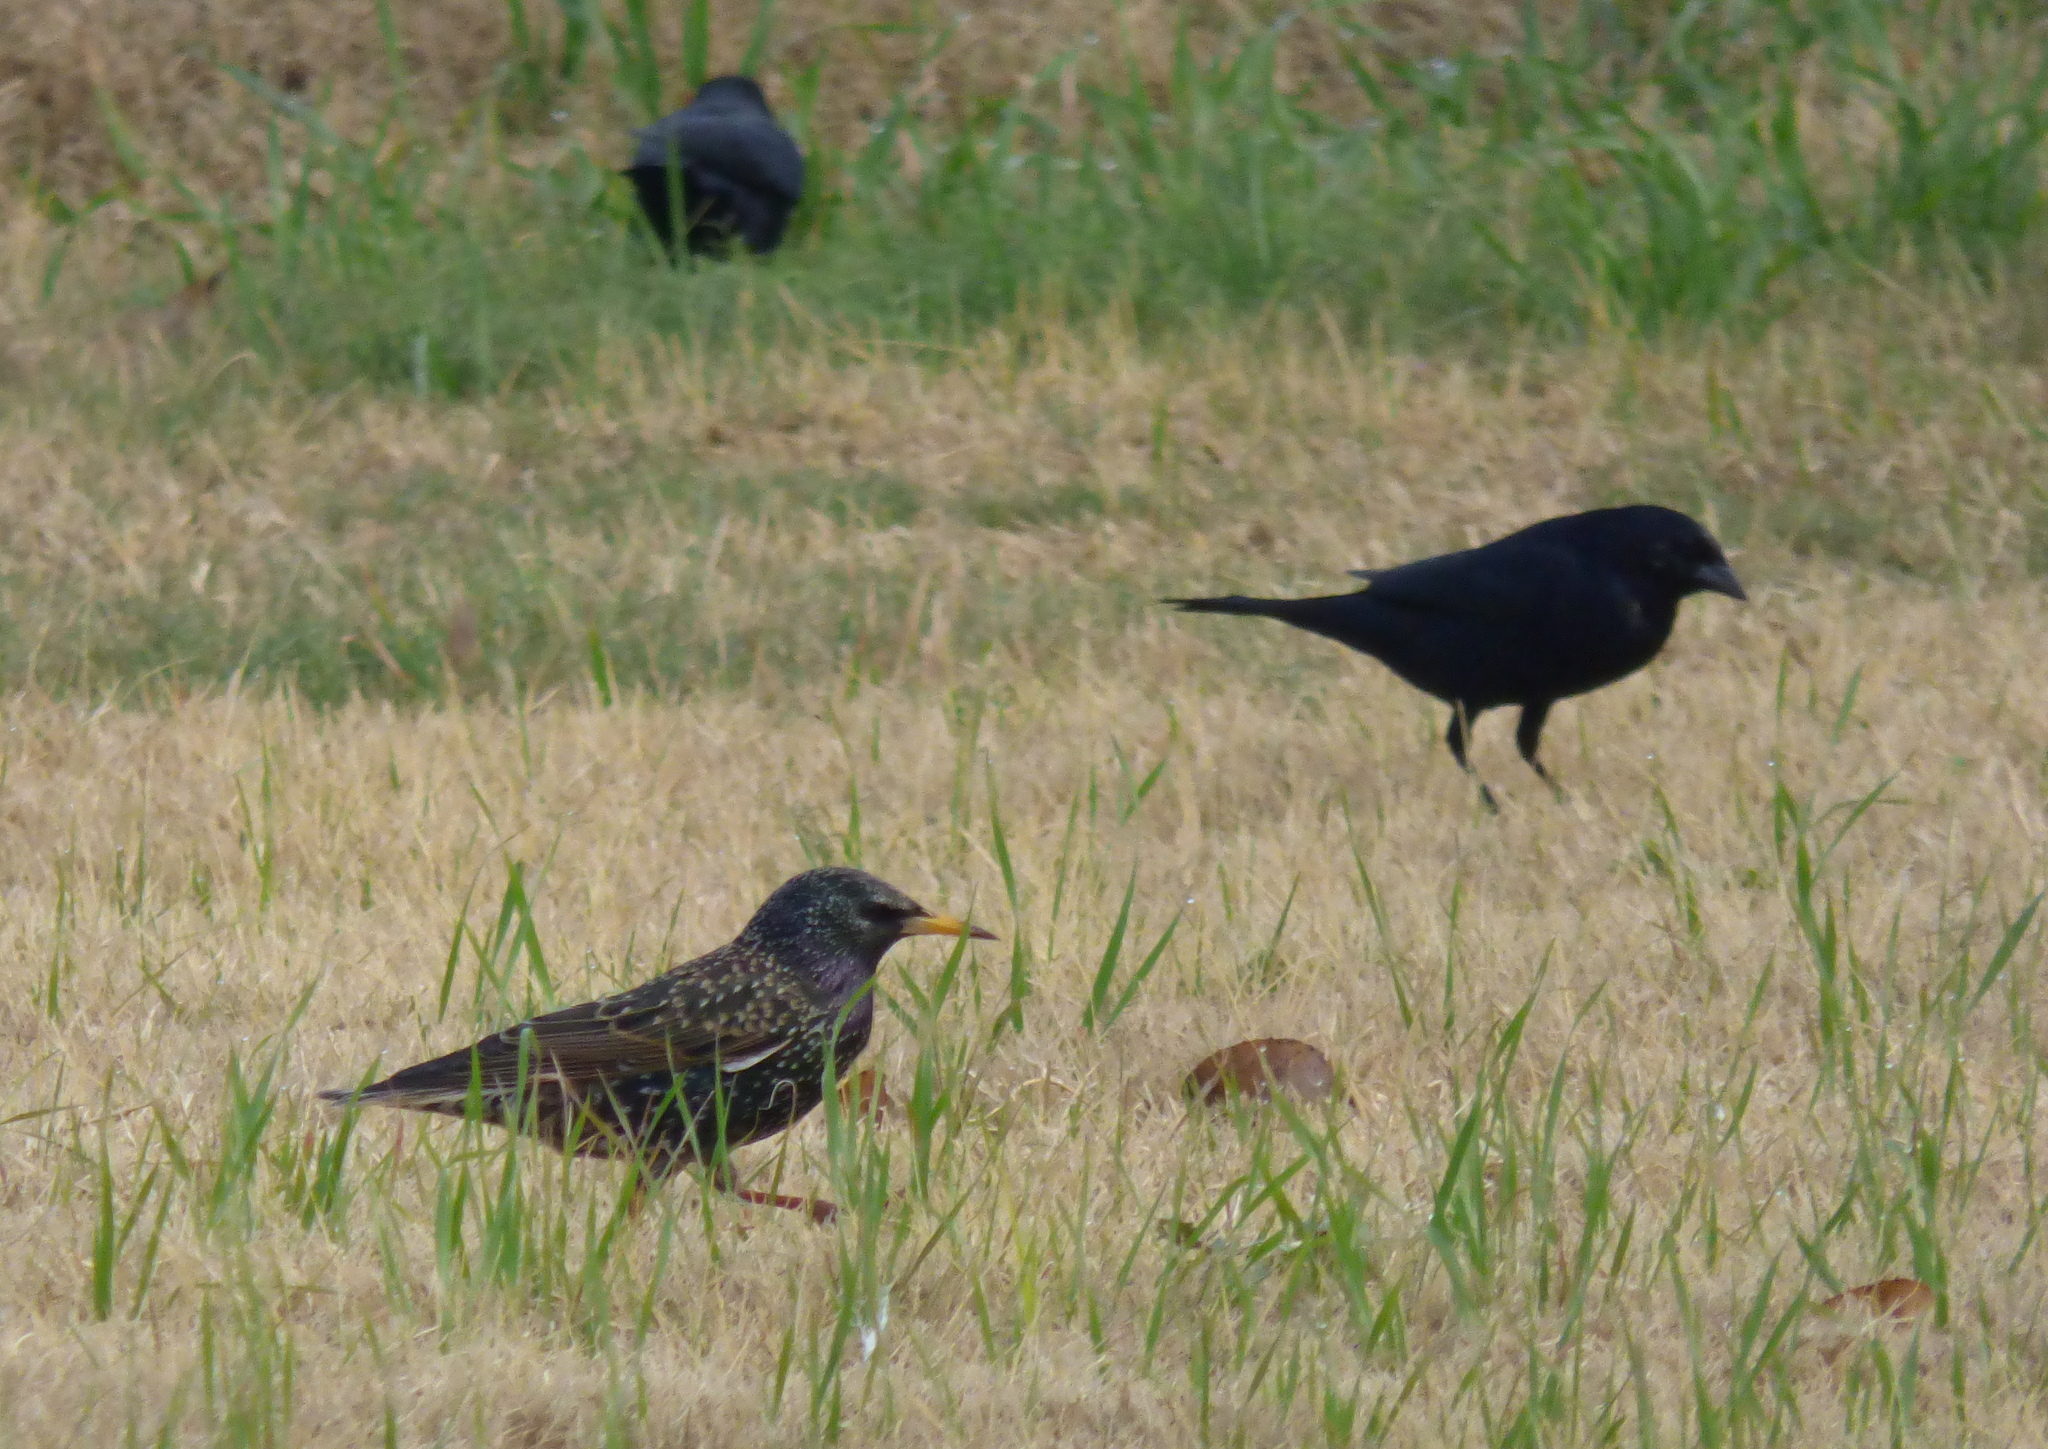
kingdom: Animalia
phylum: Chordata
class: Aves
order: Passeriformes
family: Sturnidae
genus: Sturnus
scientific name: Sturnus vulgaris
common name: Common starling
